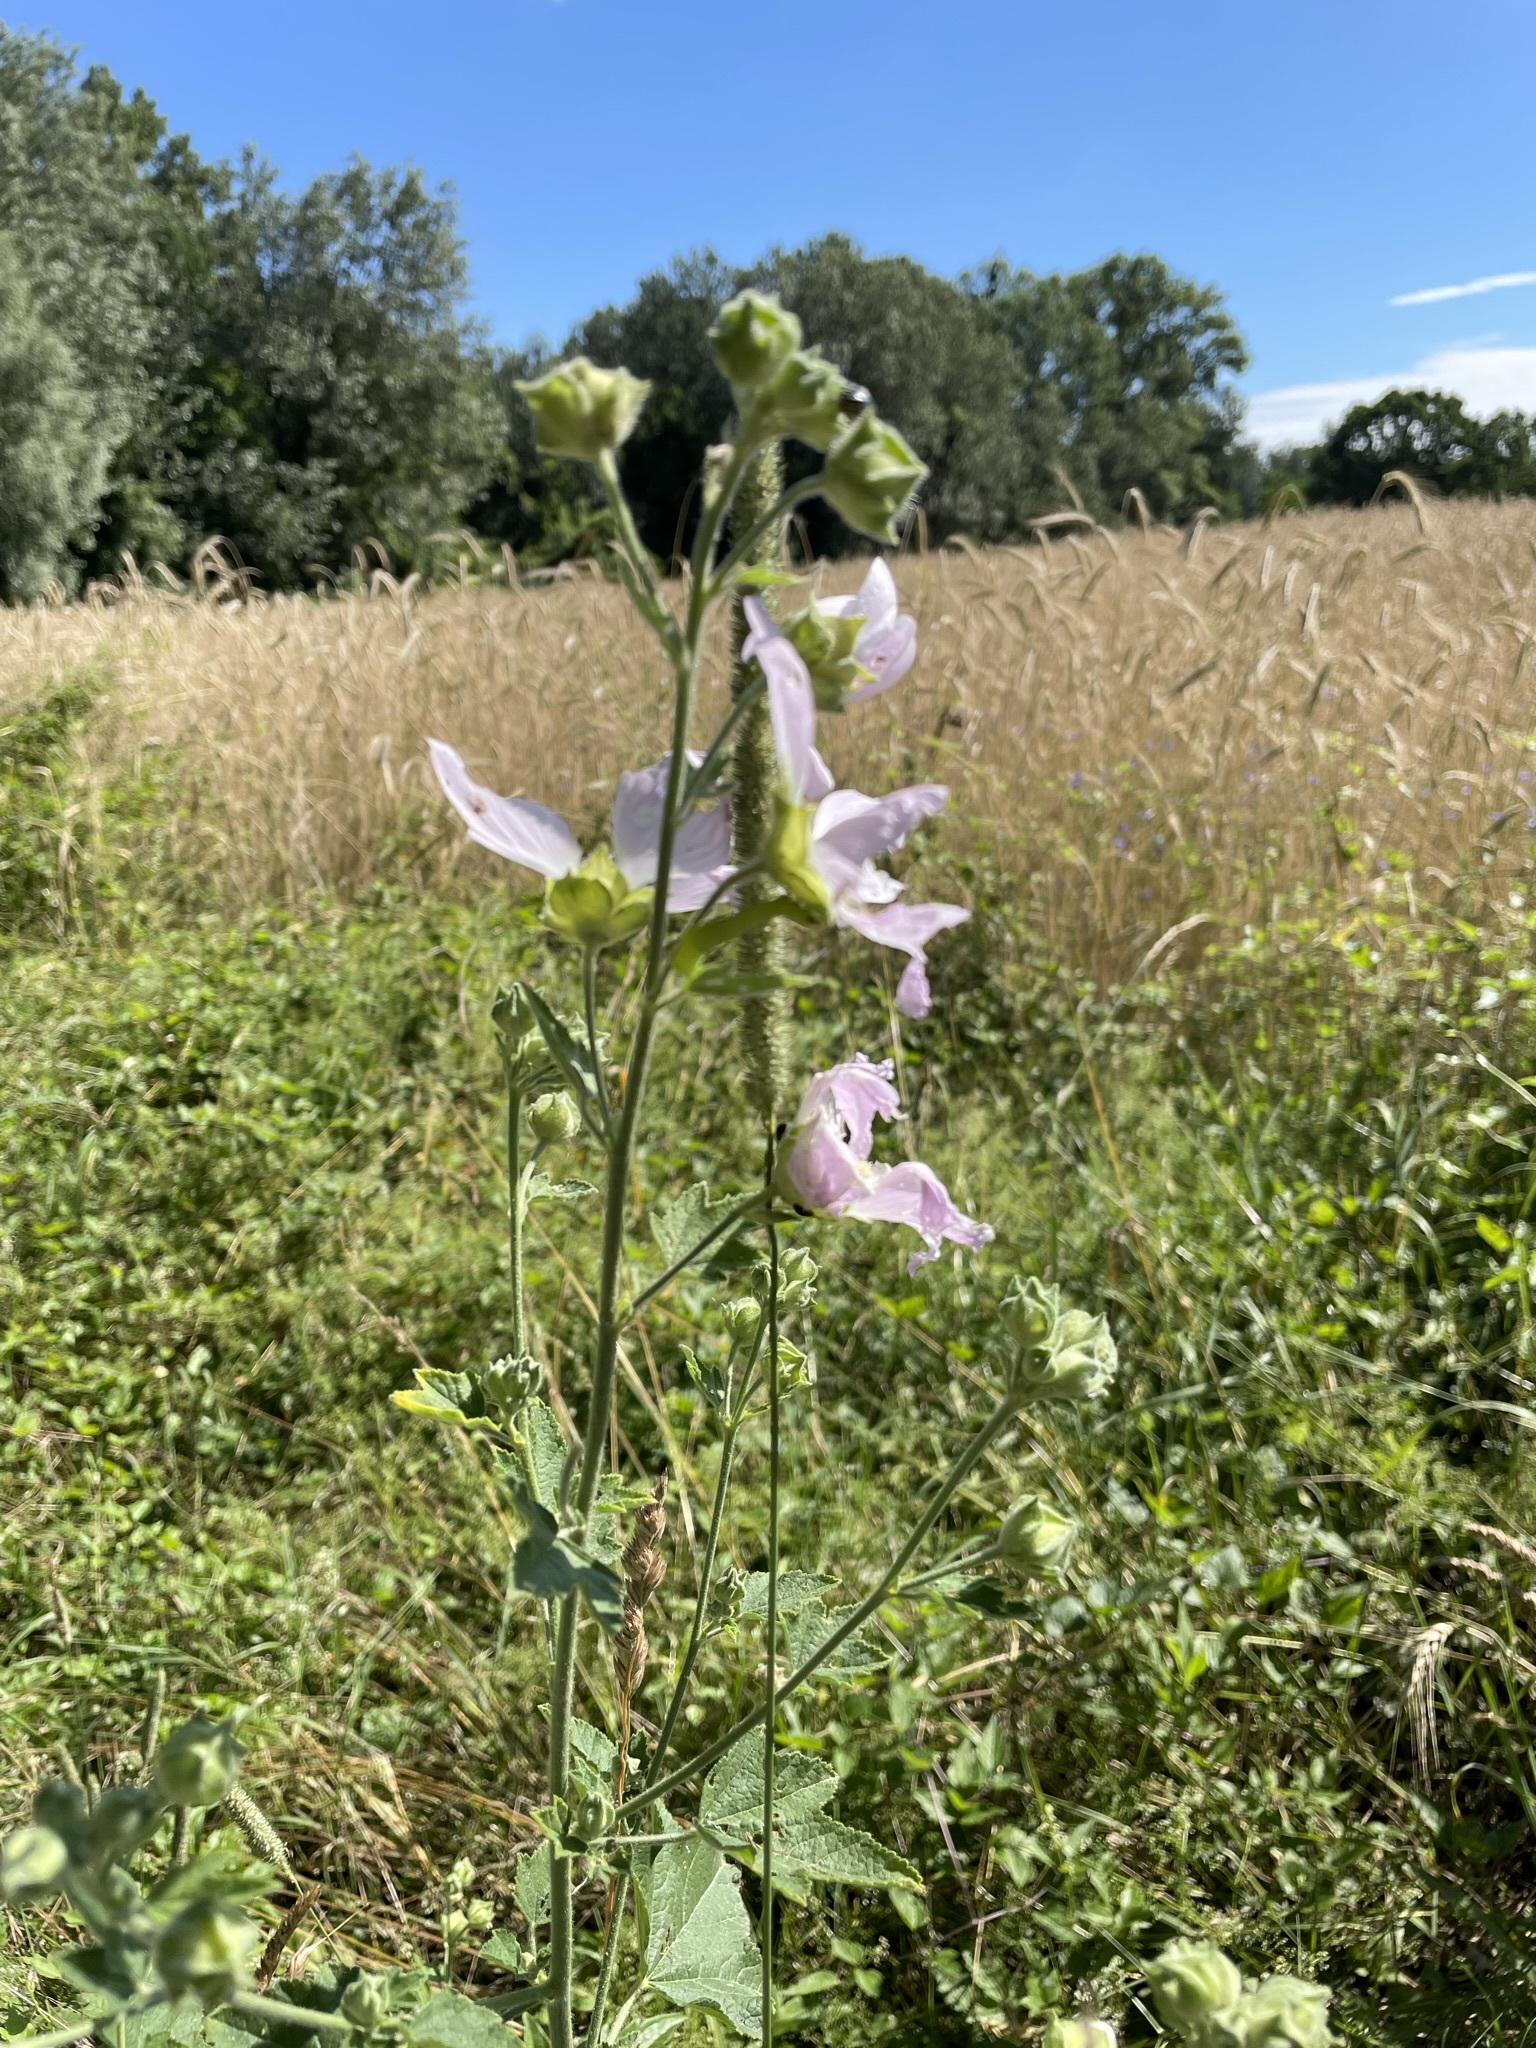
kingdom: Plantae
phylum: Tracheophyta
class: Magnoliopsida
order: Malvales
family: Malvaceae
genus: Malva
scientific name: Malva thuringiaca
